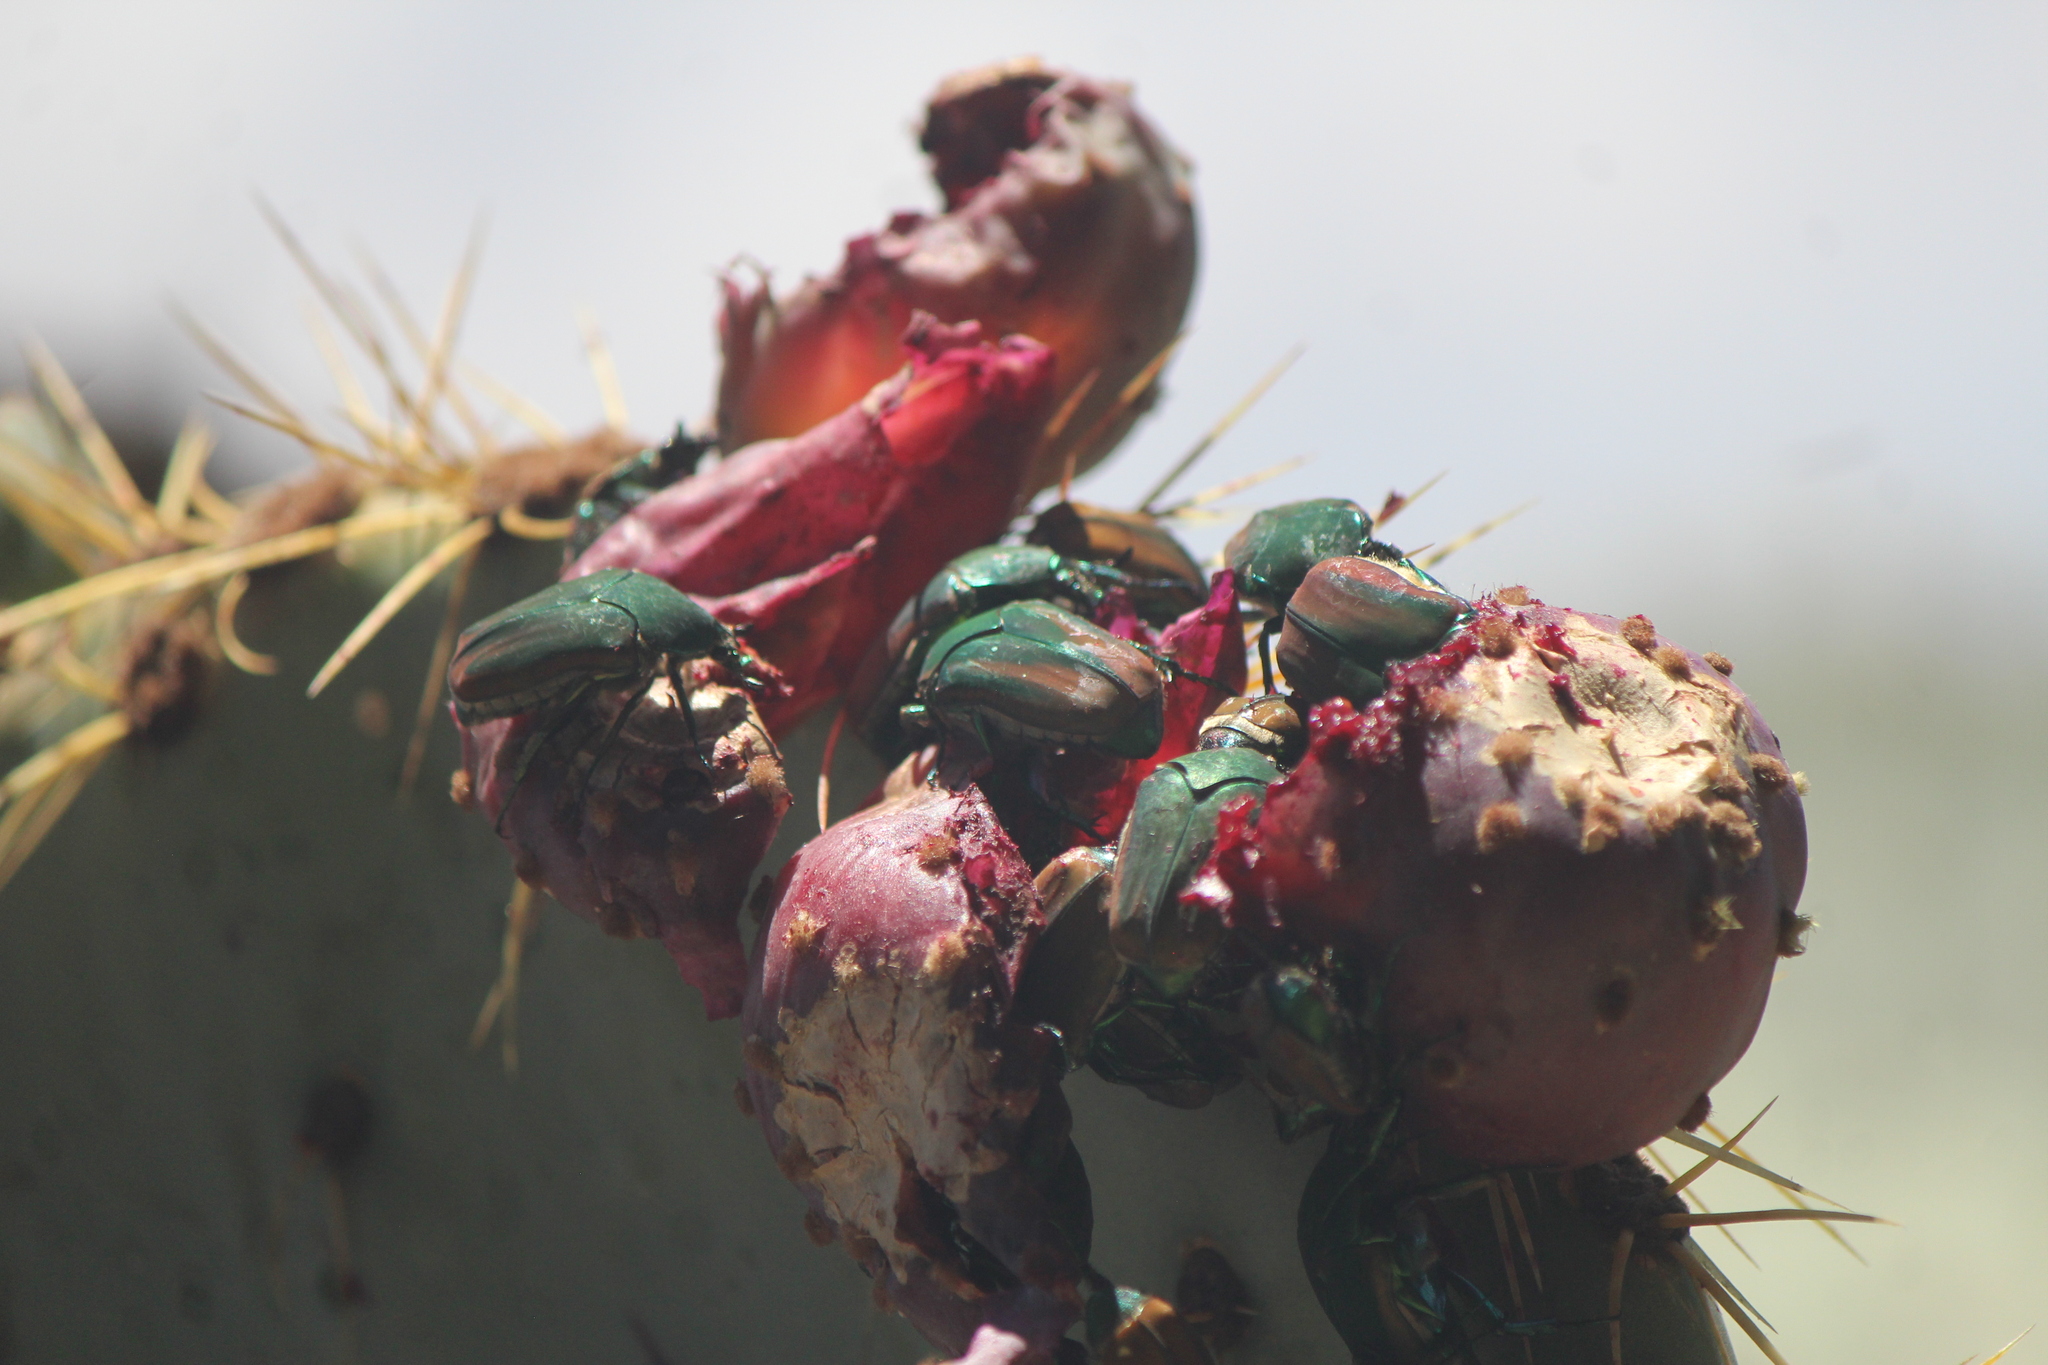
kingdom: Animalia
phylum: Arthropoda
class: Insecta
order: Coleoptera
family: Scarabaeidae
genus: Cotinis
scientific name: Cotinis mutabilis
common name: Figeater beetle
